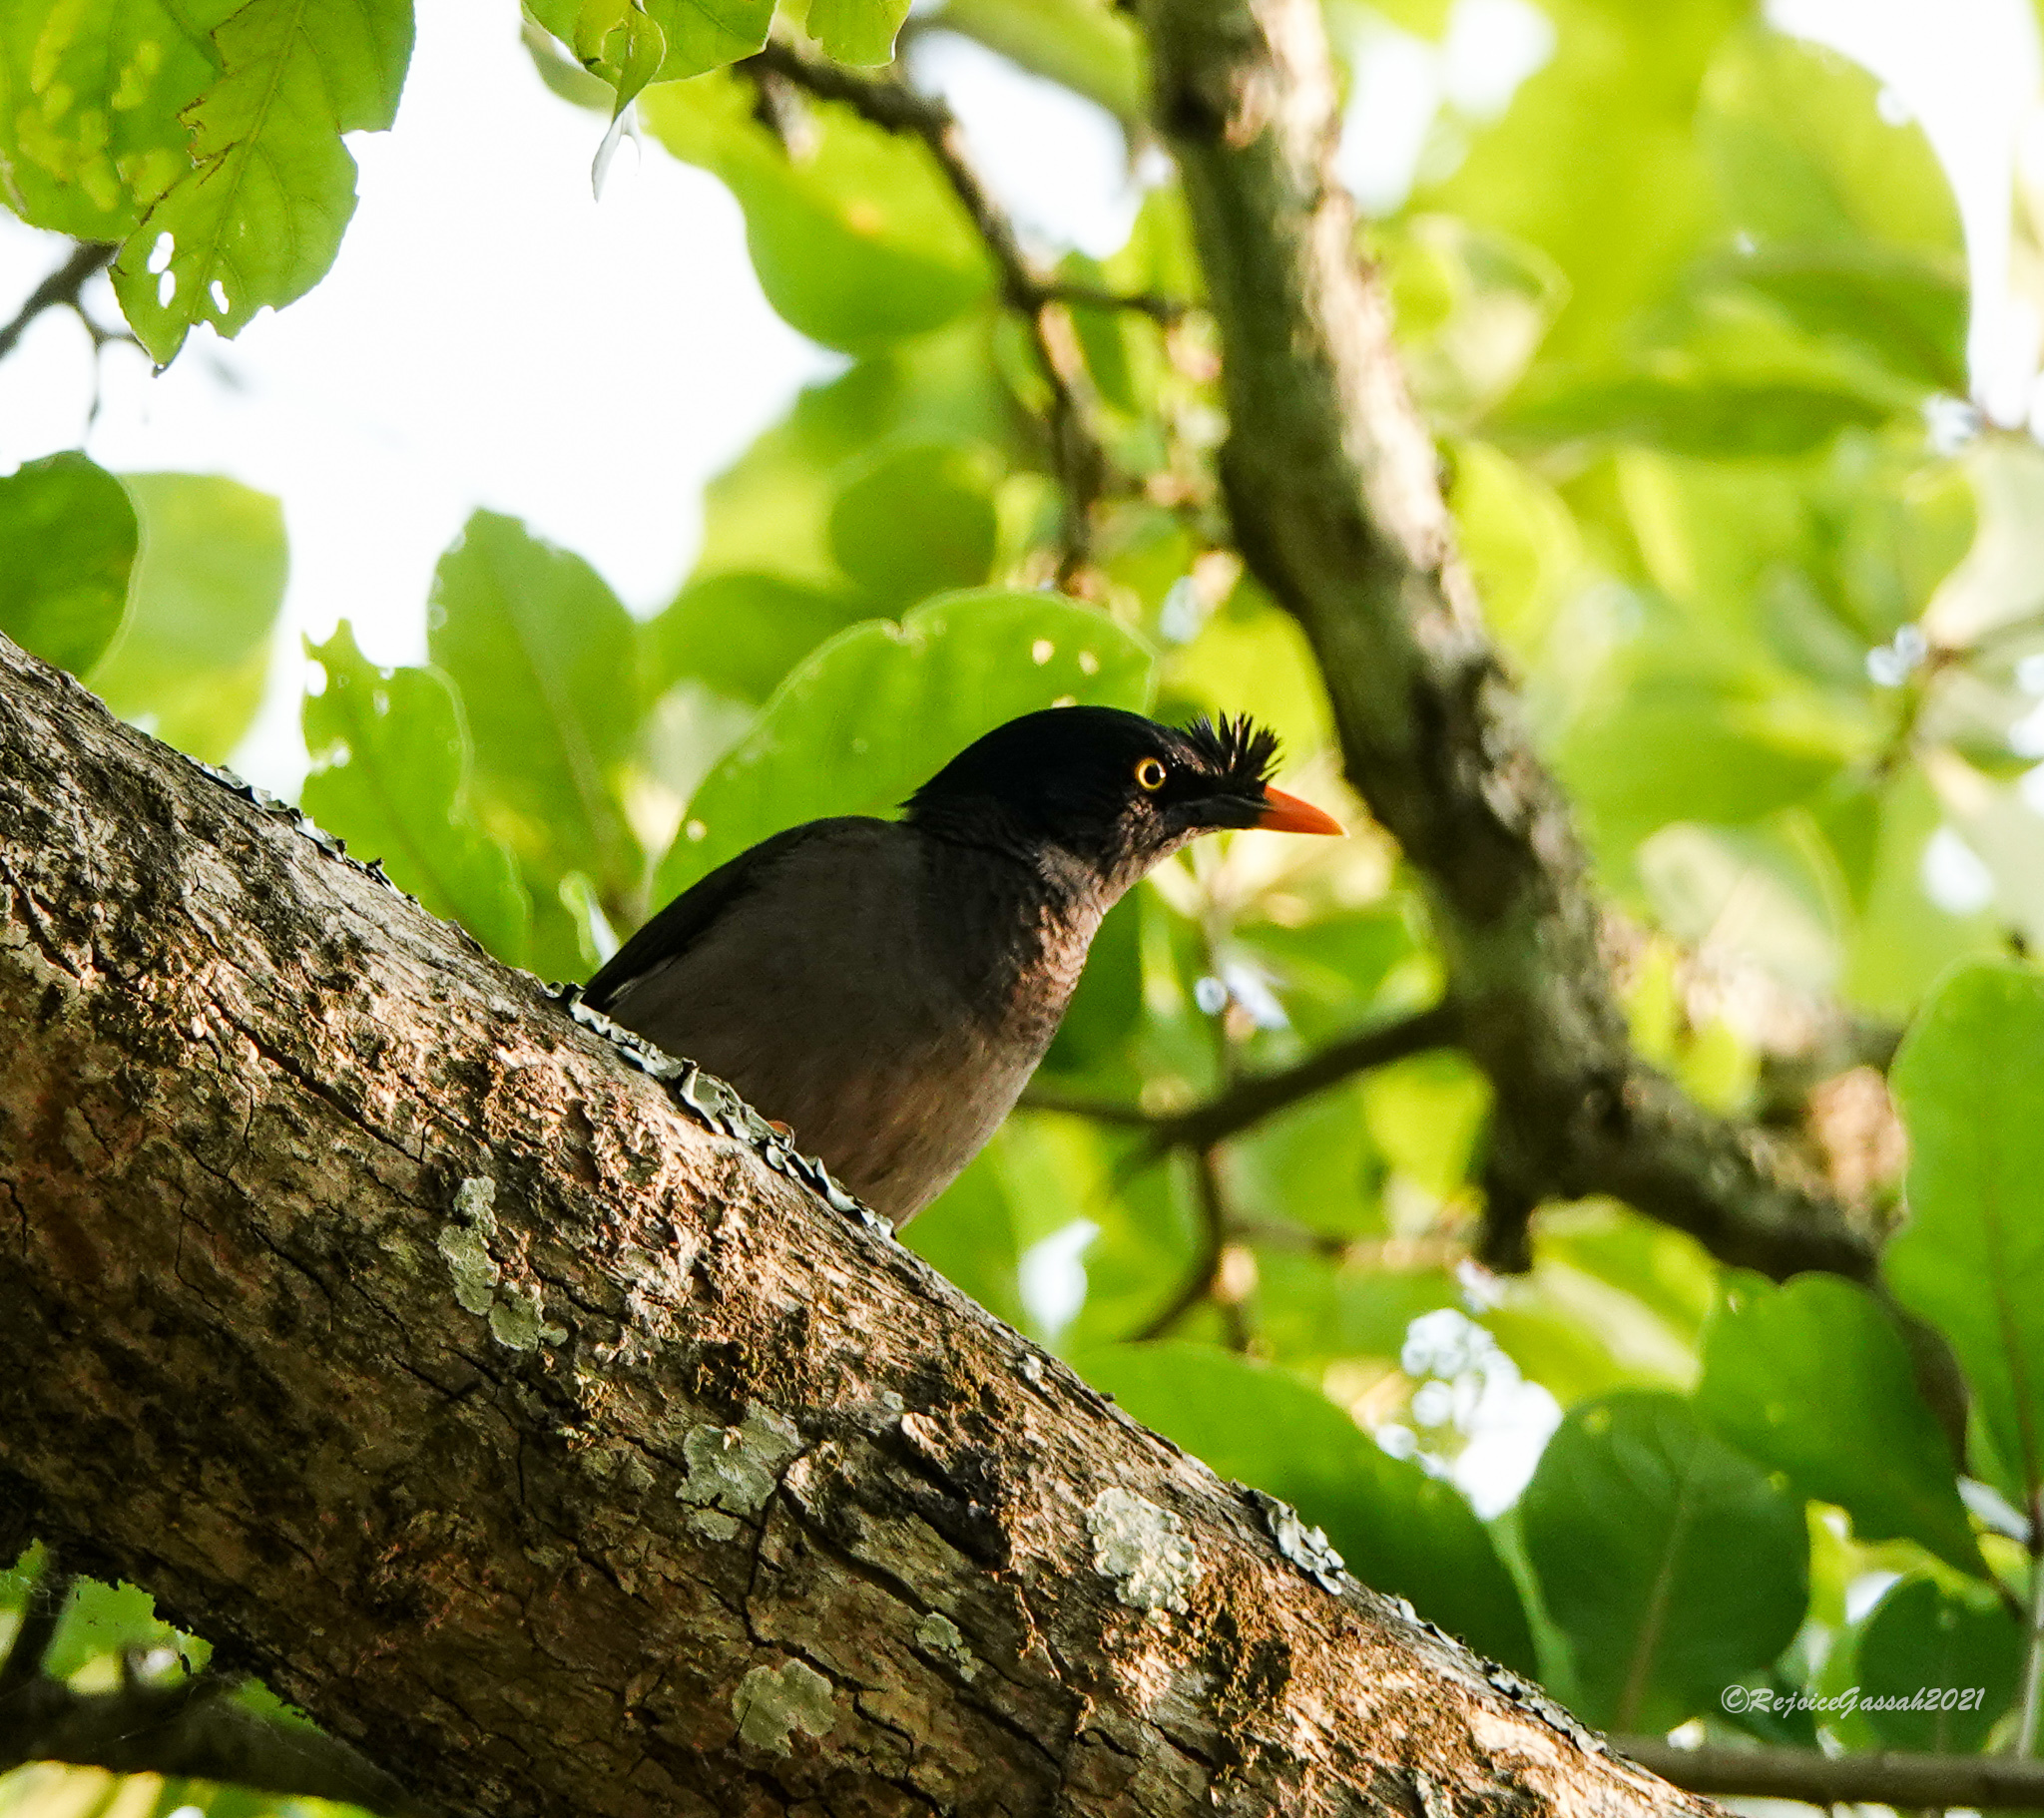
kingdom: Animalia
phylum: Chordata
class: Aves
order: Passeriformes
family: Sturnidae
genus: Acridotheres
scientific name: Acridotheres fuscus
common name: Jungle myna
